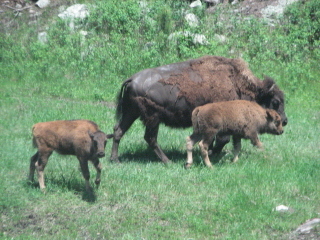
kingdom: Animalia
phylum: Chordata
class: Mammalia
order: Artiodactyla
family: Bovidae
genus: Bison
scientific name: Bison bison
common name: American bison
